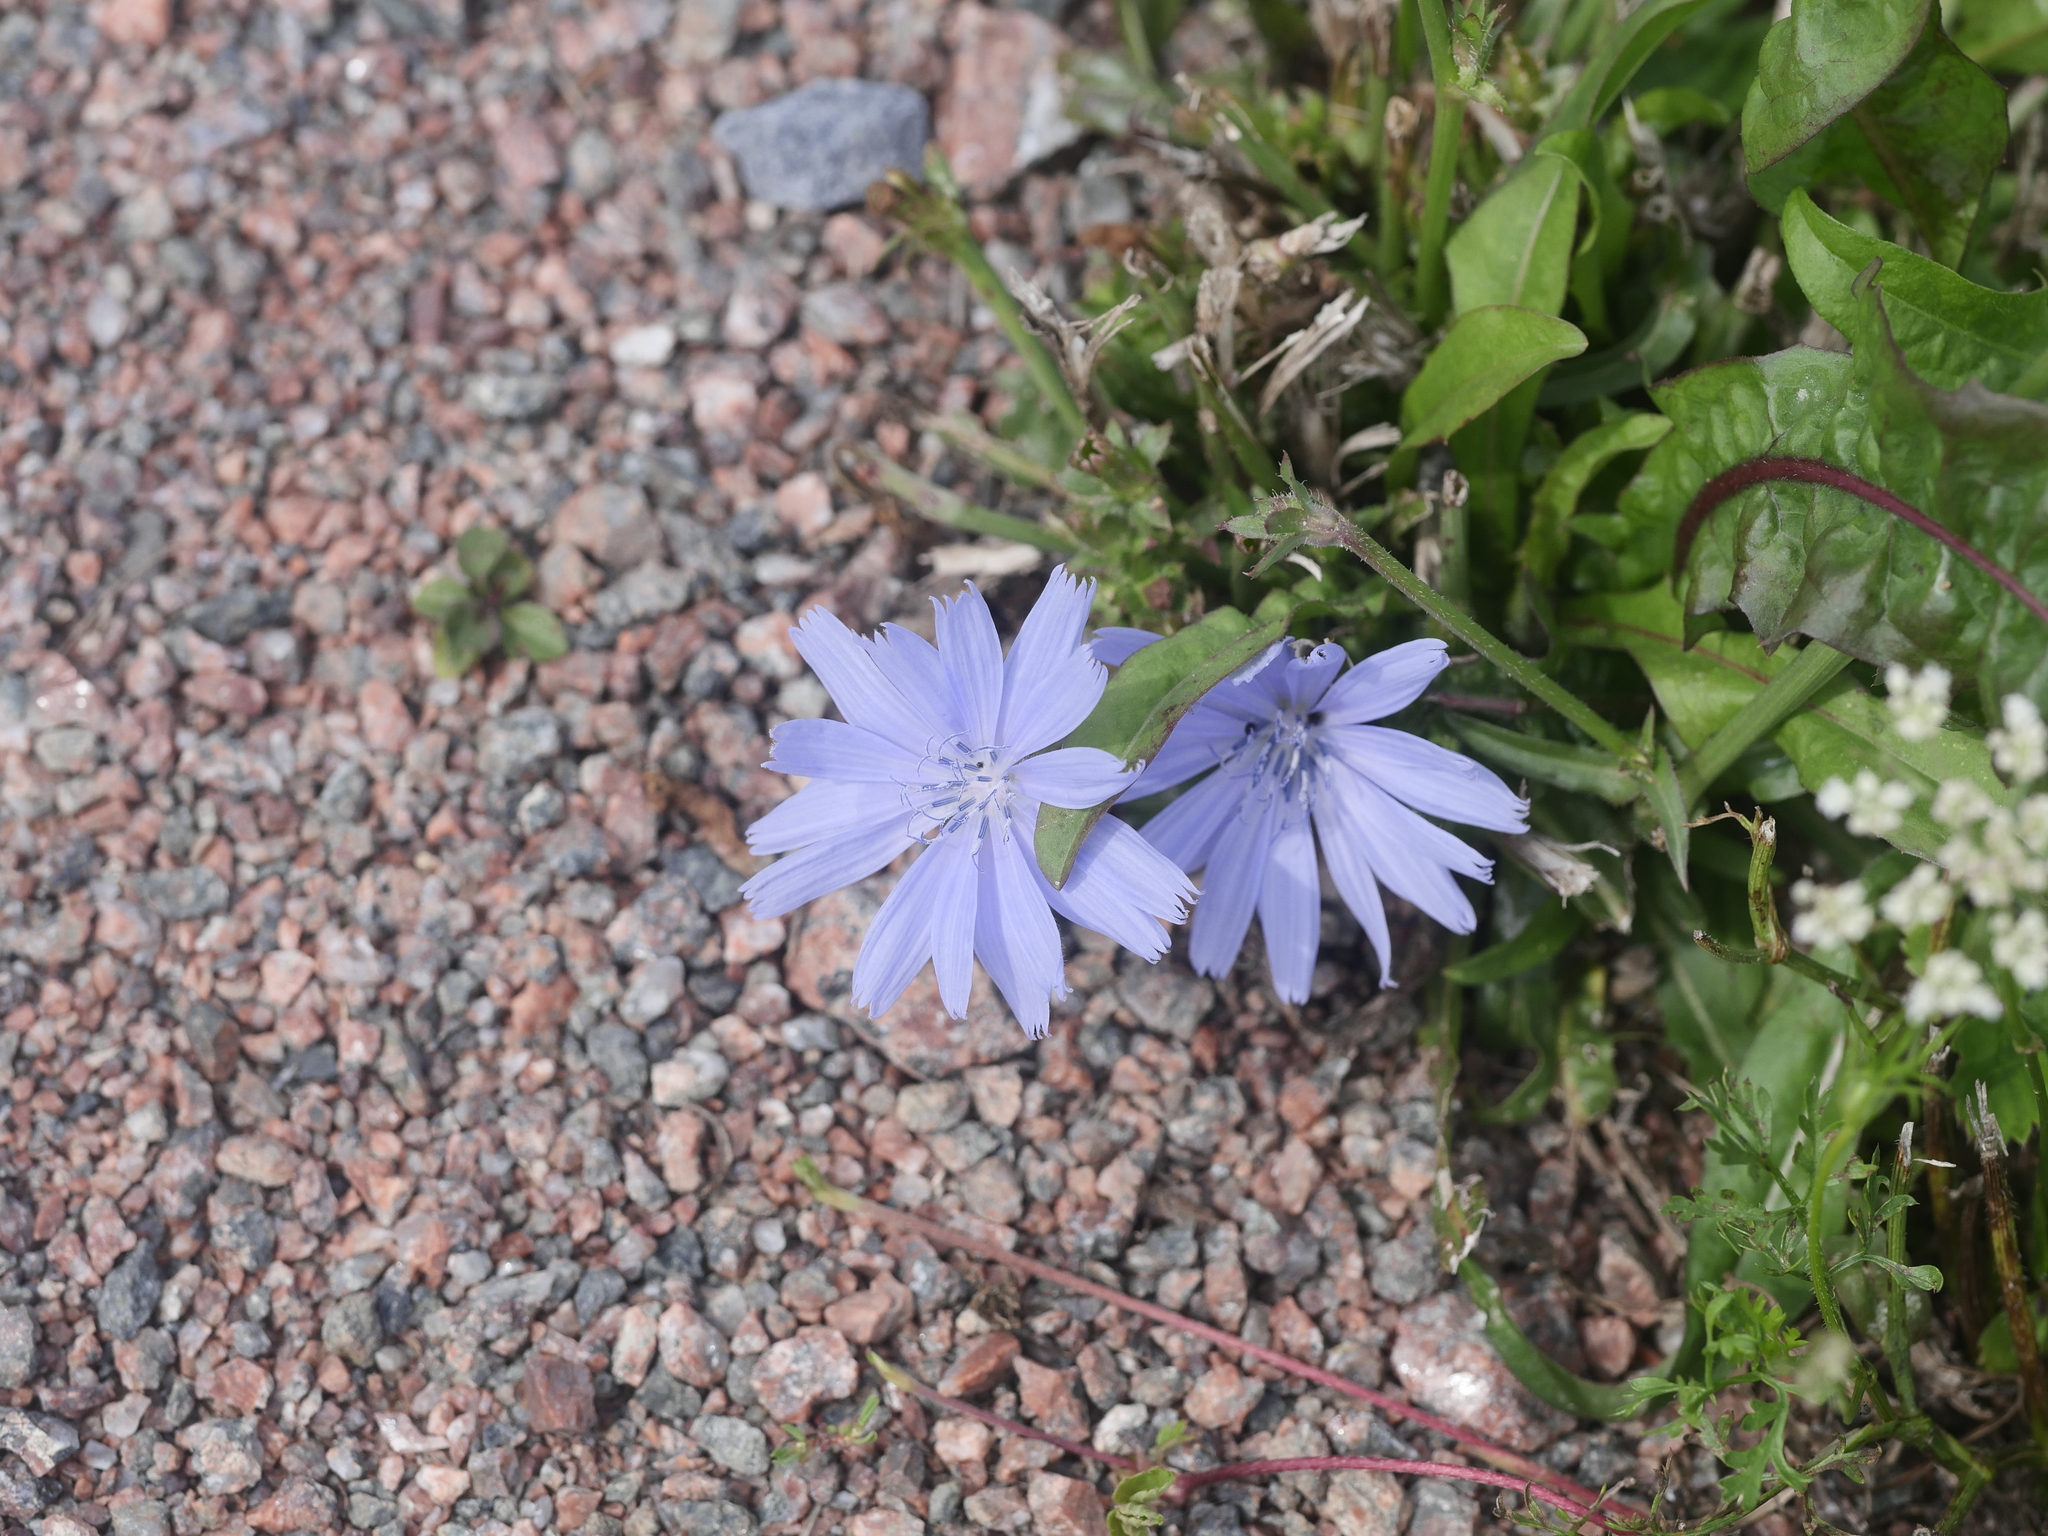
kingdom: Plantae
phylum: Tracheophyta
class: Magnoliopsida
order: Asterales
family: Asteraceae
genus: Cichorium
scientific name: Cichorium intybus
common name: Chicory
